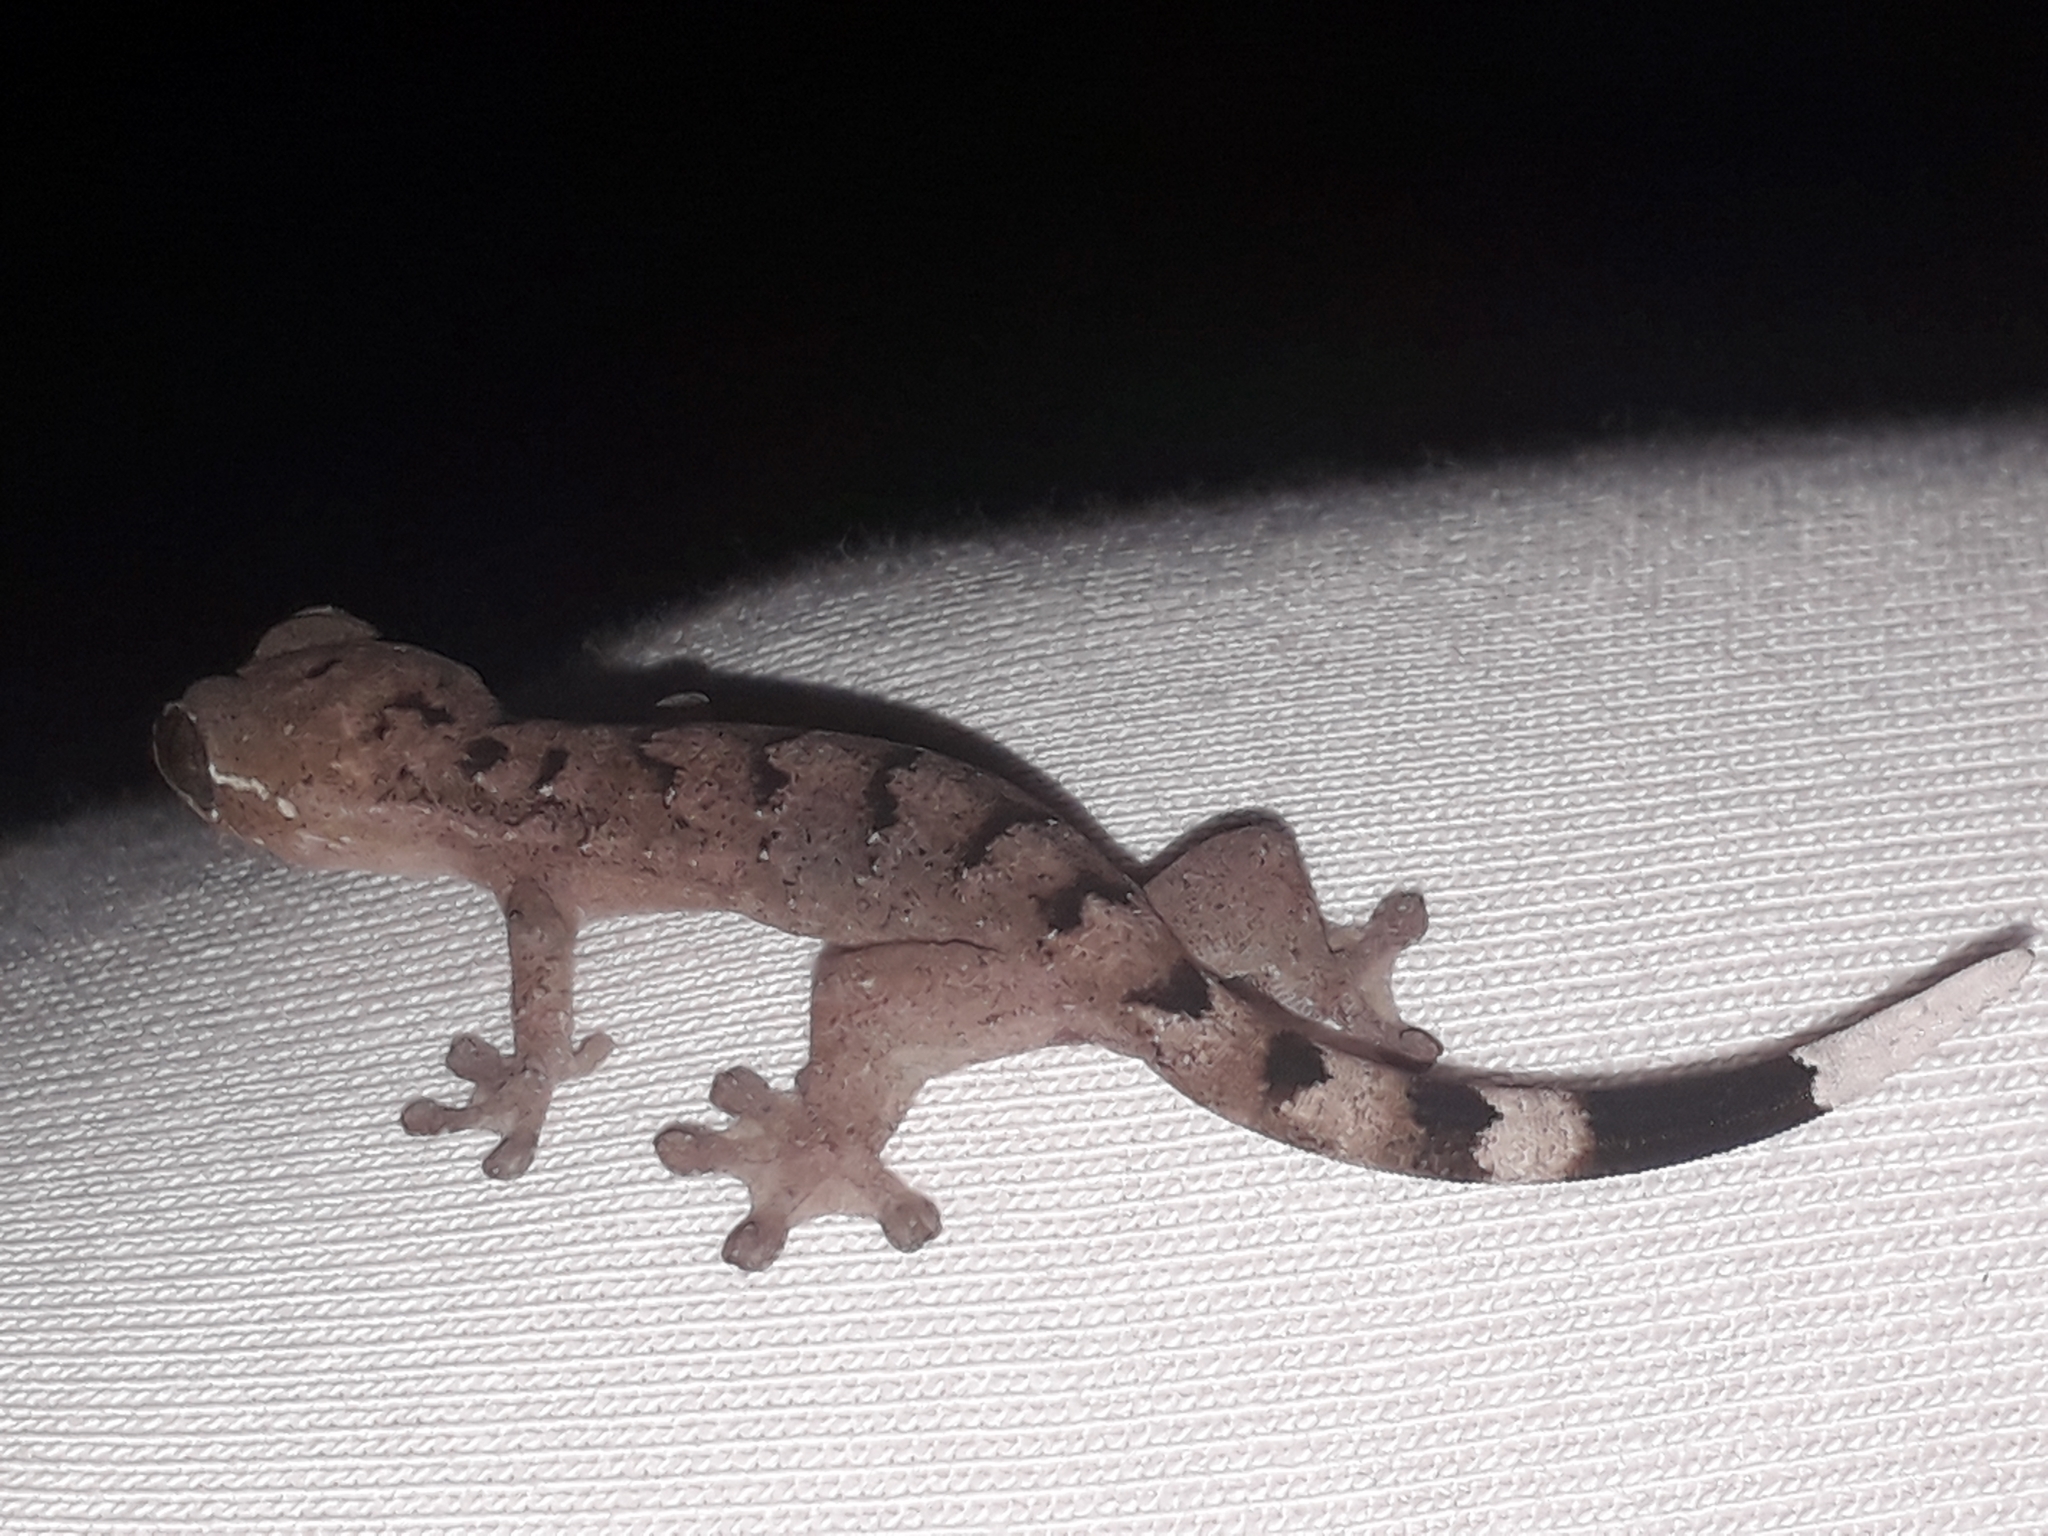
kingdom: Animalia
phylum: Chordata
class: Squamata
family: Phyllodactylidae
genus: Thecadactylus
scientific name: Thecadactylus rapicauda
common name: Turnip-tailed gecko
